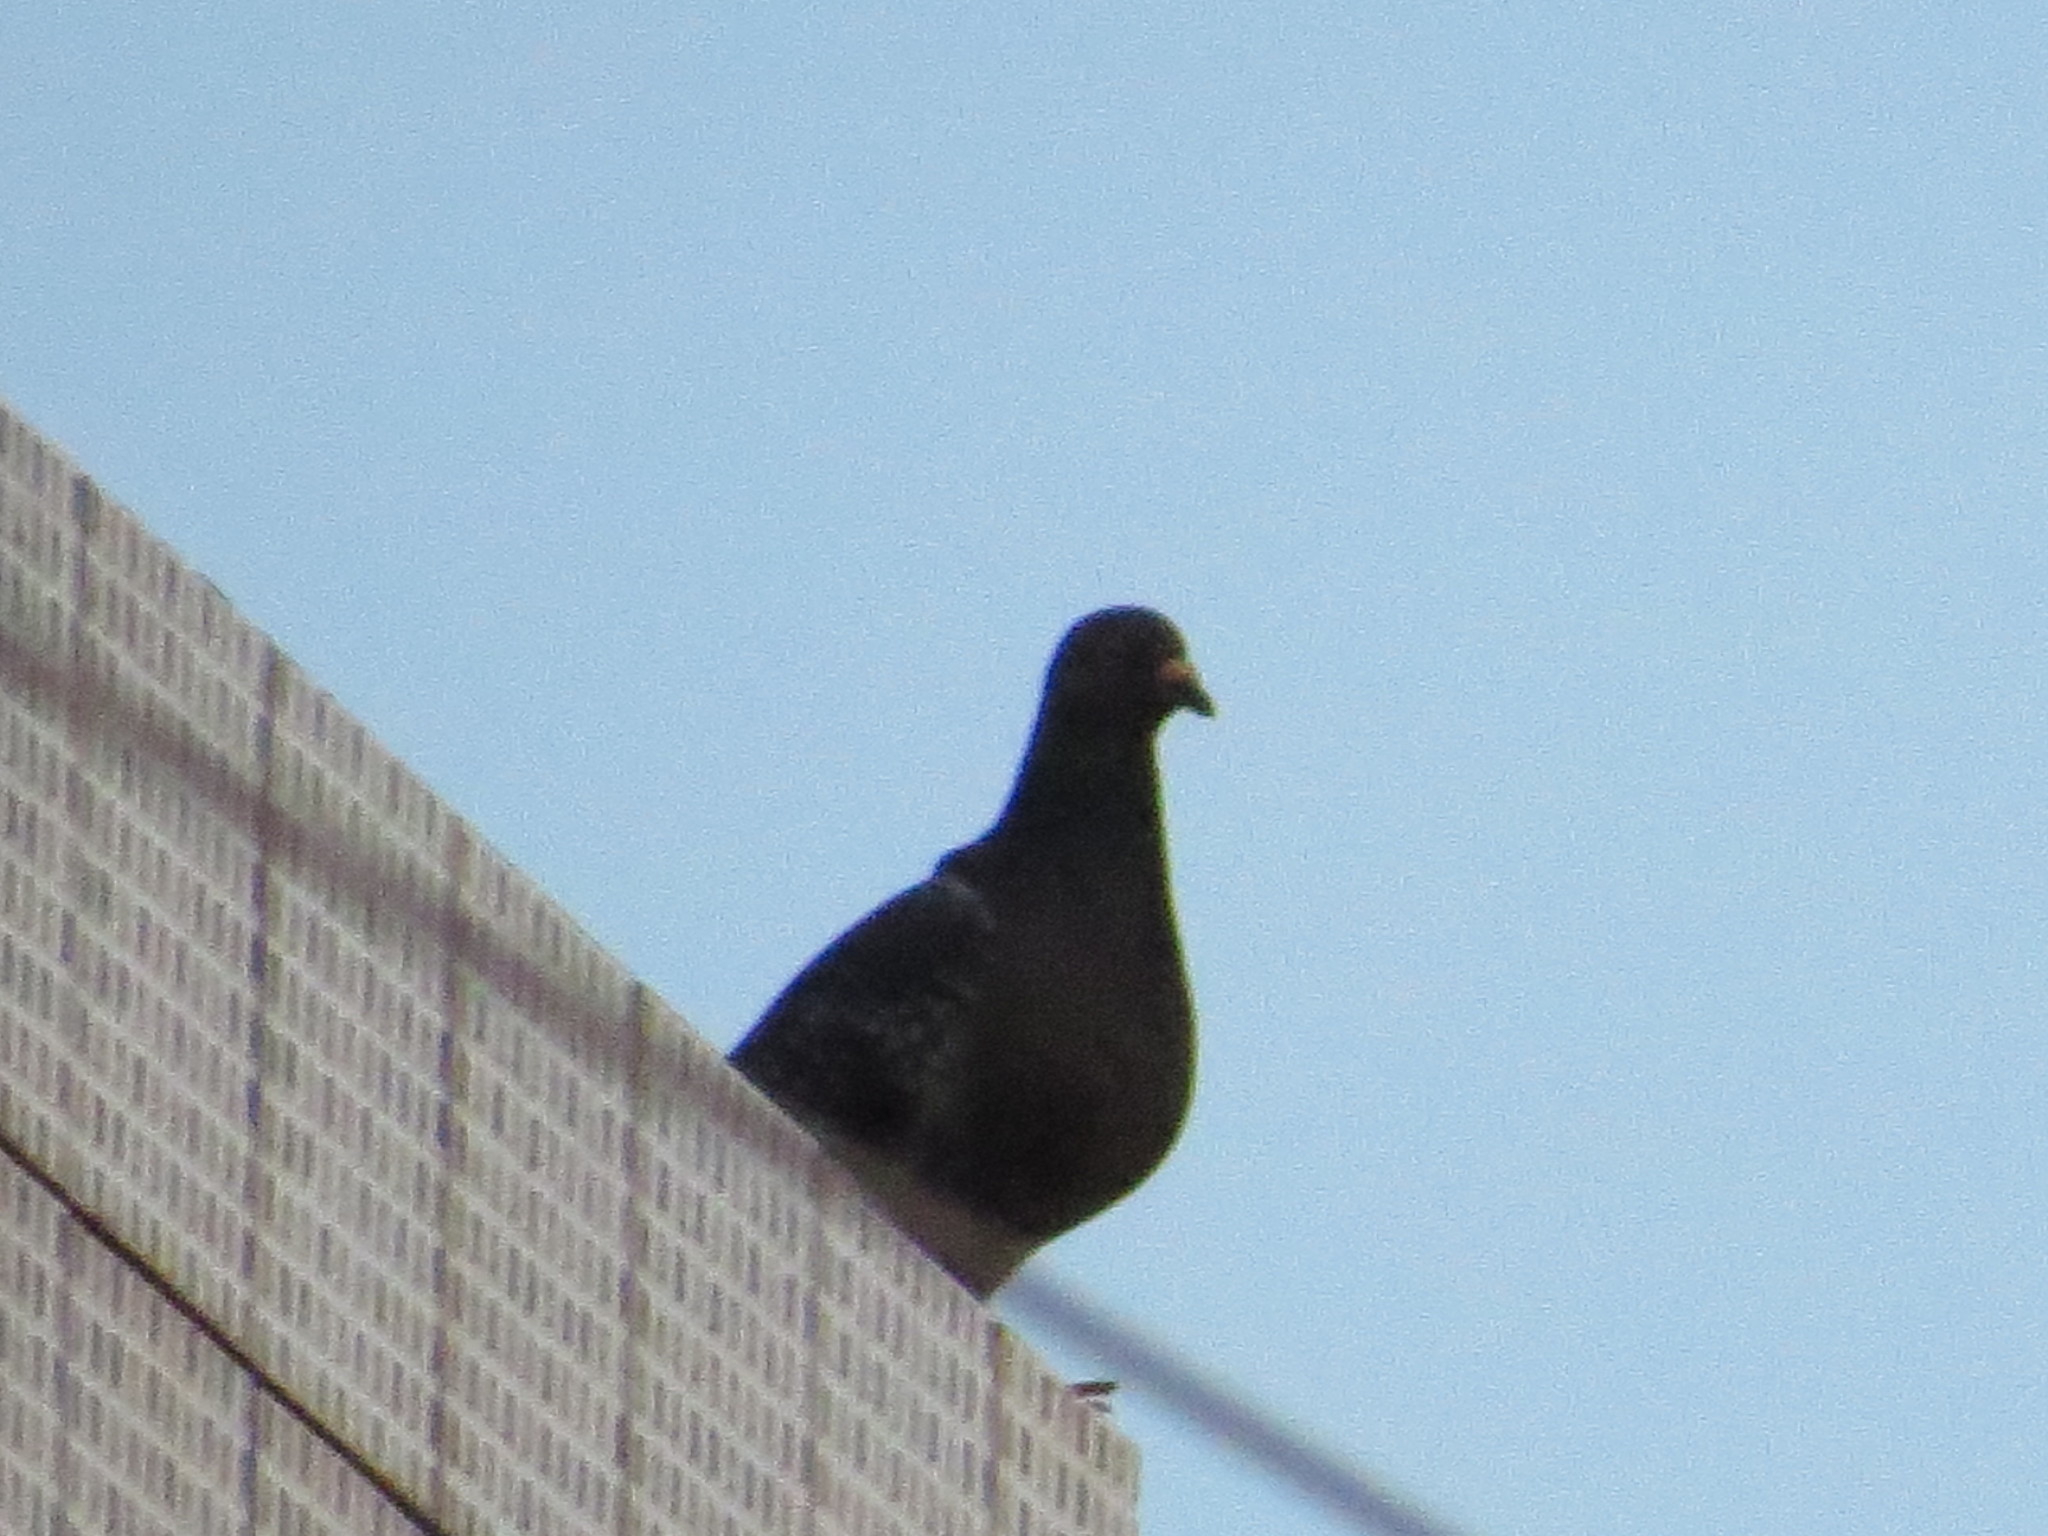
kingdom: Animalia
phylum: Chordata
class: Aves
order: Columbiformes
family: Columbidae
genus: Columba
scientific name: Columba livia
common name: Rock pigeon
